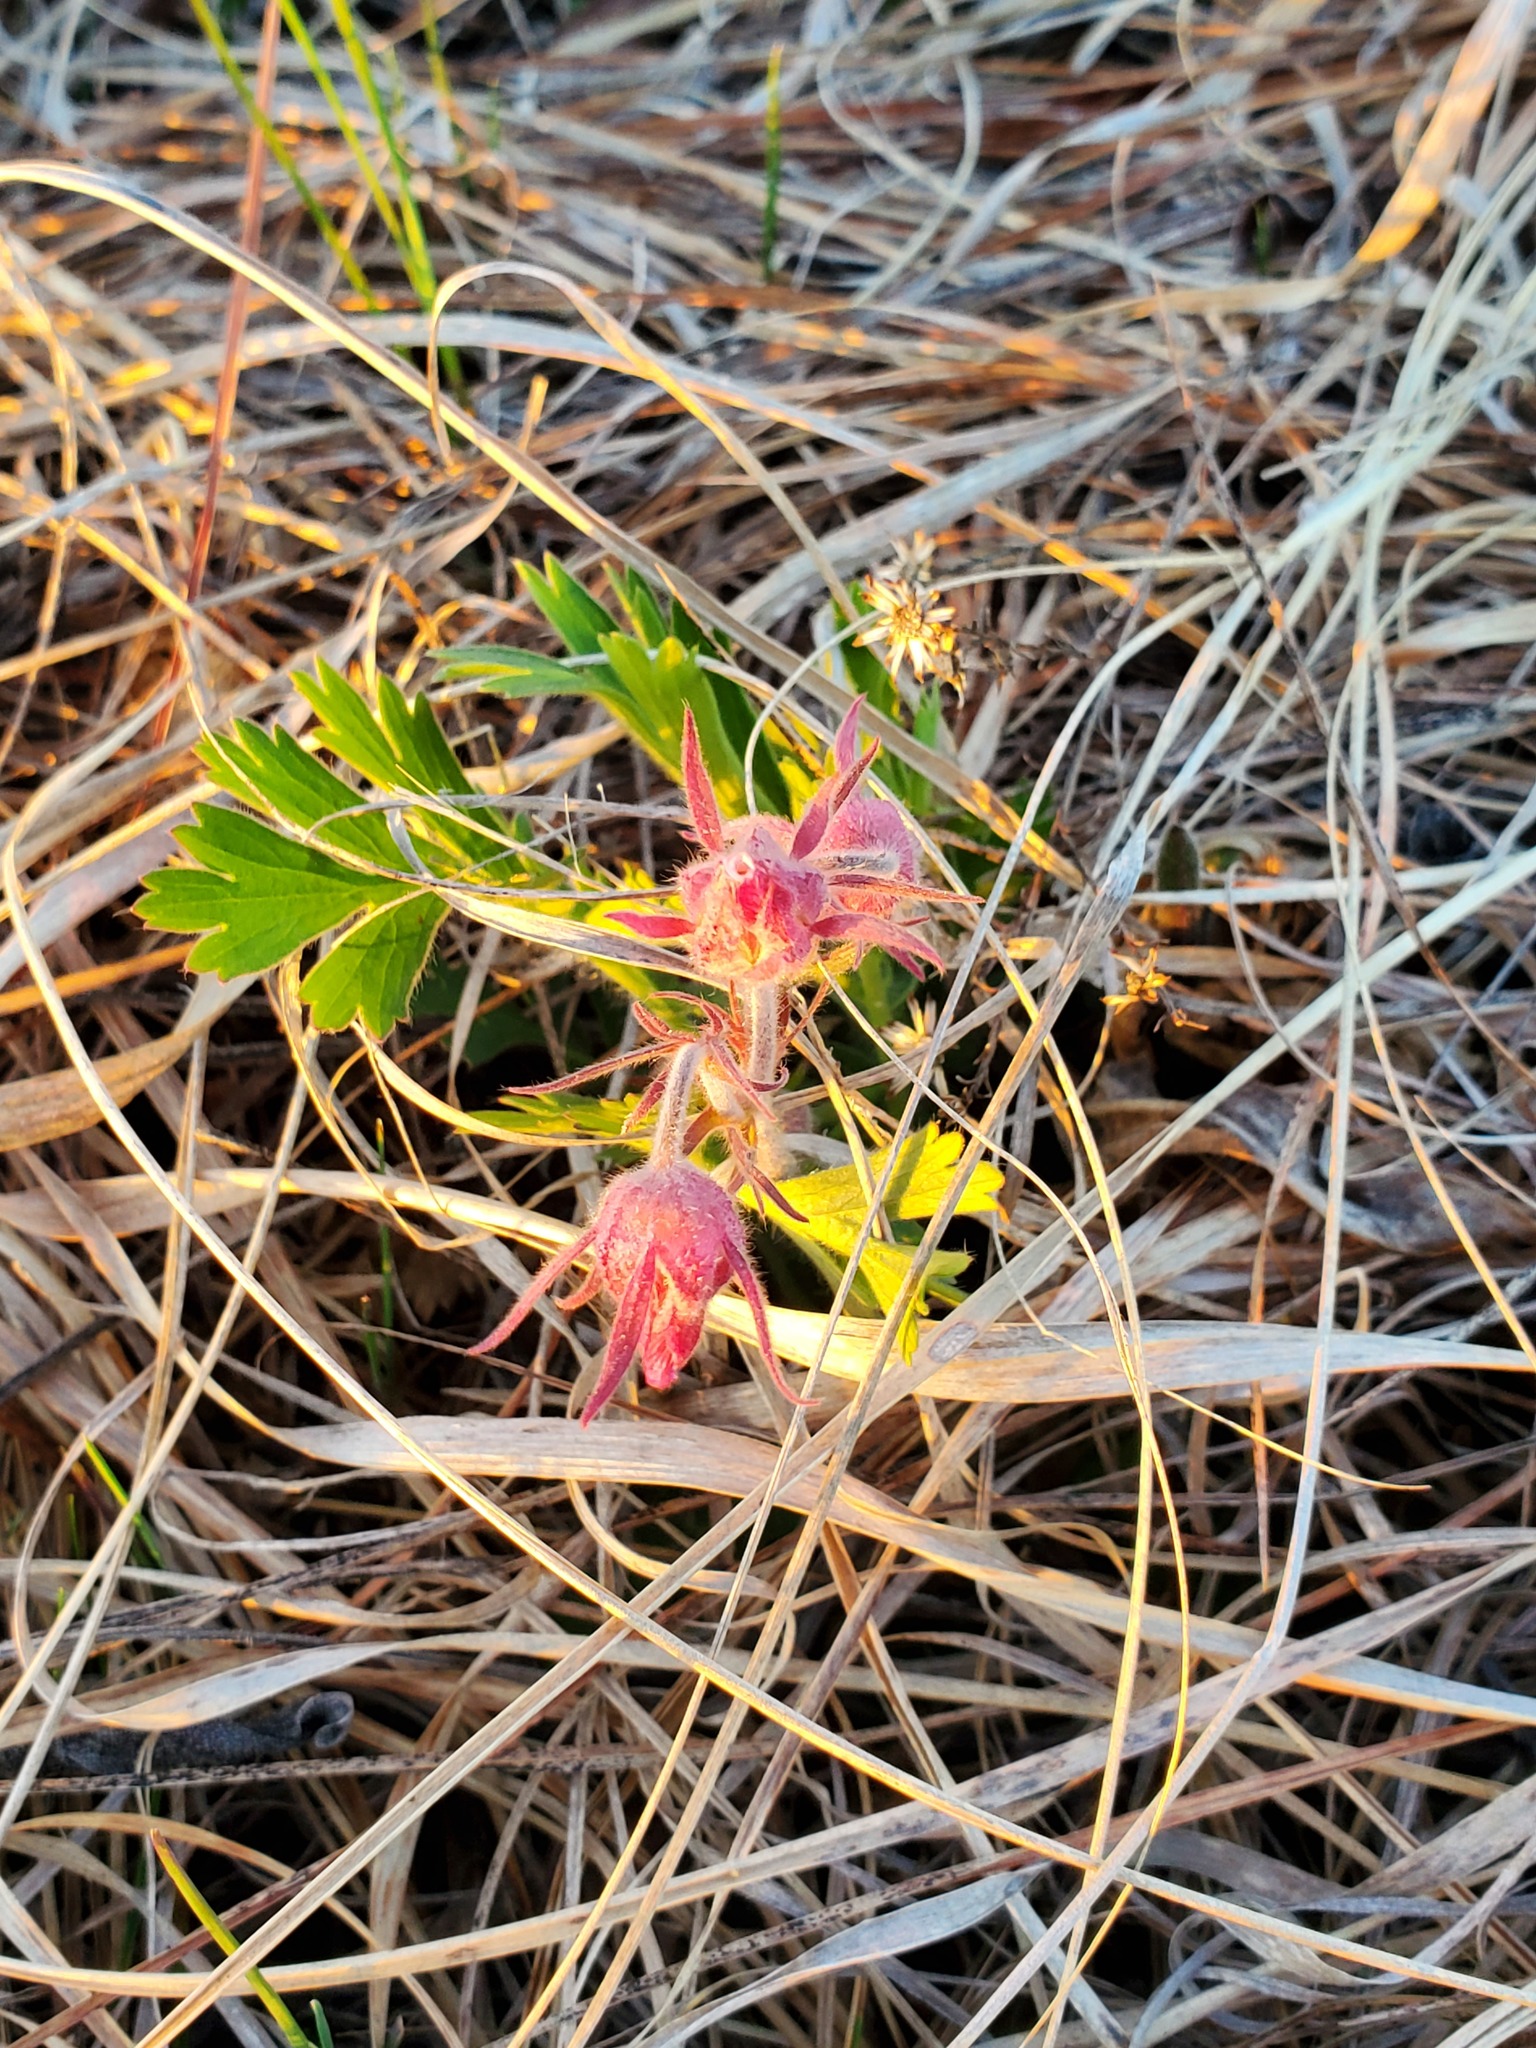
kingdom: Plantae
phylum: Tracheophyta
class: Magnoliopsida
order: Rosales
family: Rosaceae
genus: Geum
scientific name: Geum triflorum
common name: Old man's whiskers
